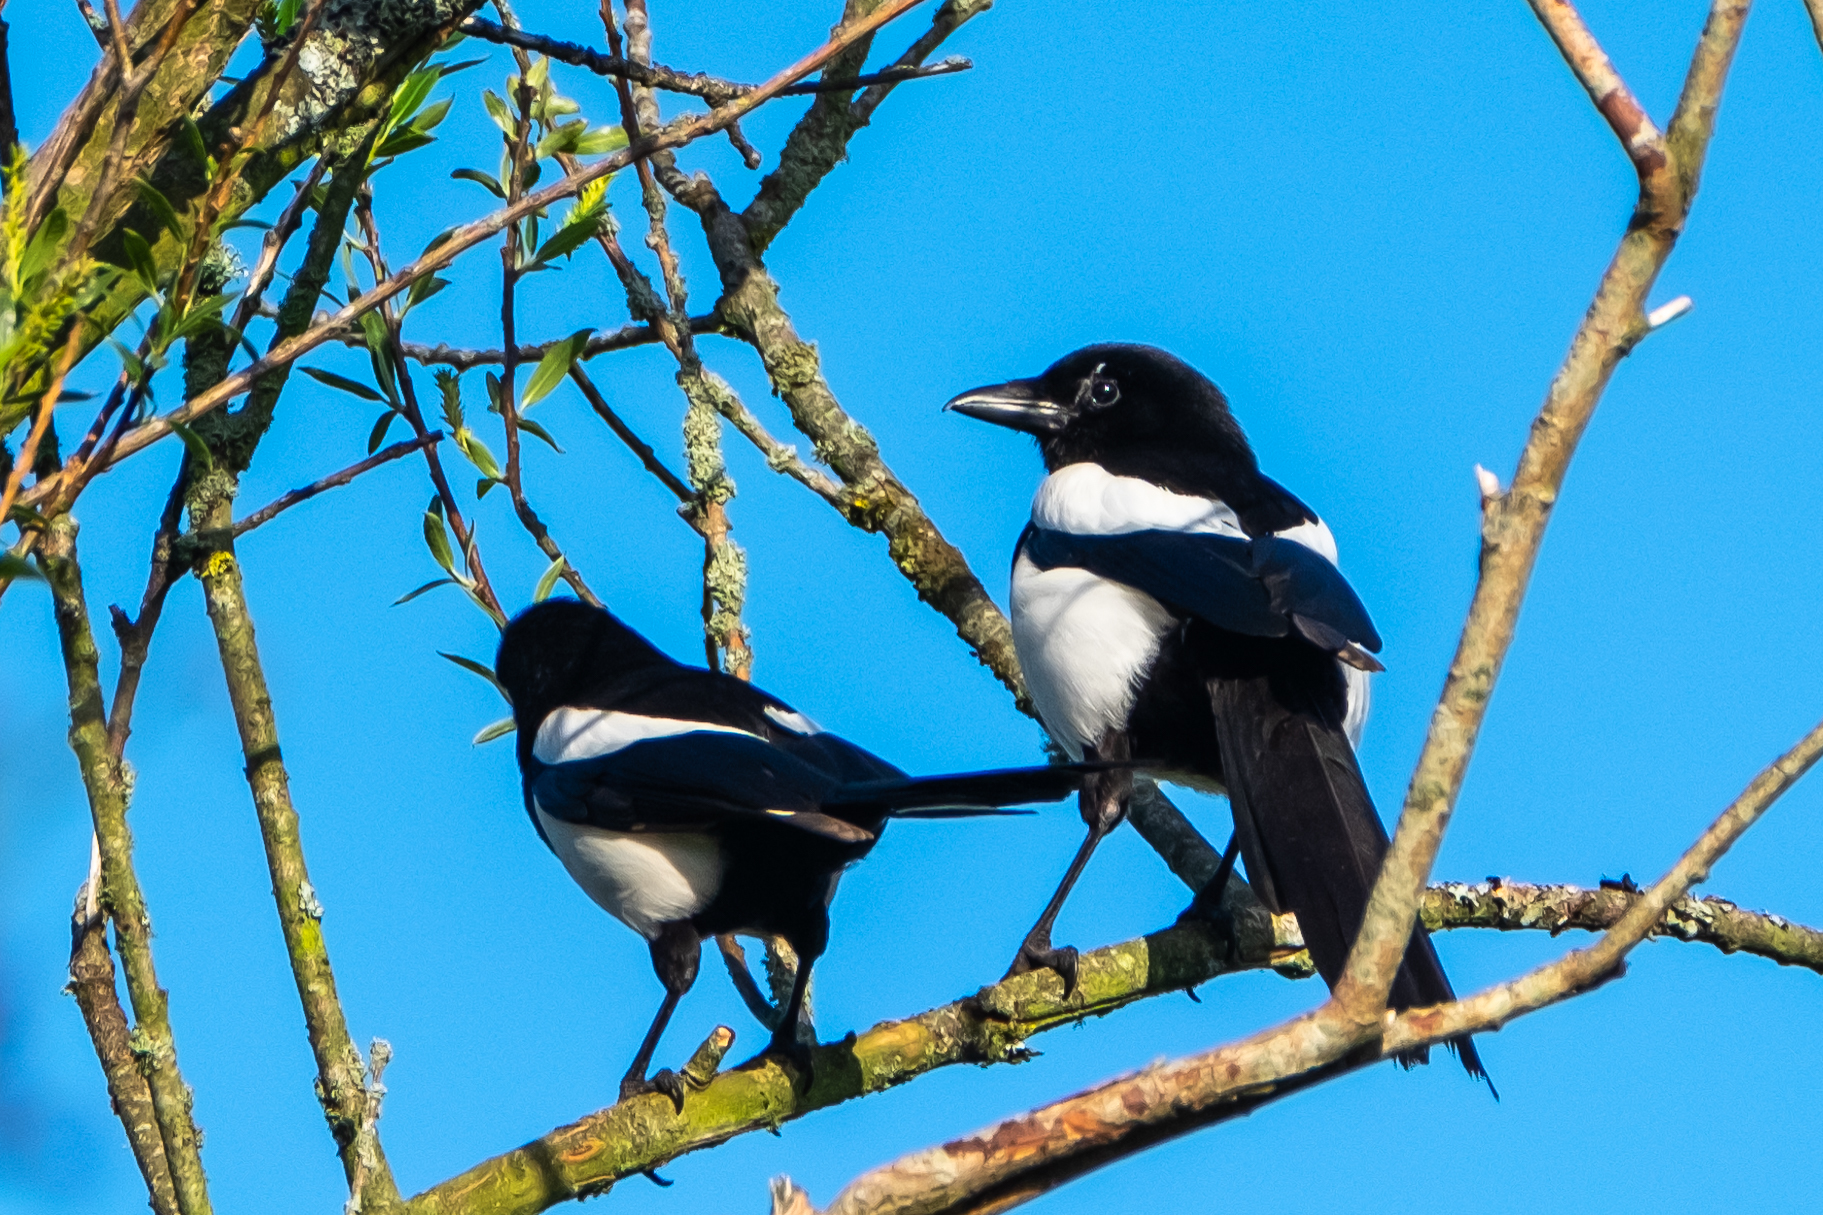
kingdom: Animalia
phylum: Chordata
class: Aves
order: Passeriformes
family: Corvidae
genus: Pica
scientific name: Pica pica
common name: Eurasian magpie
